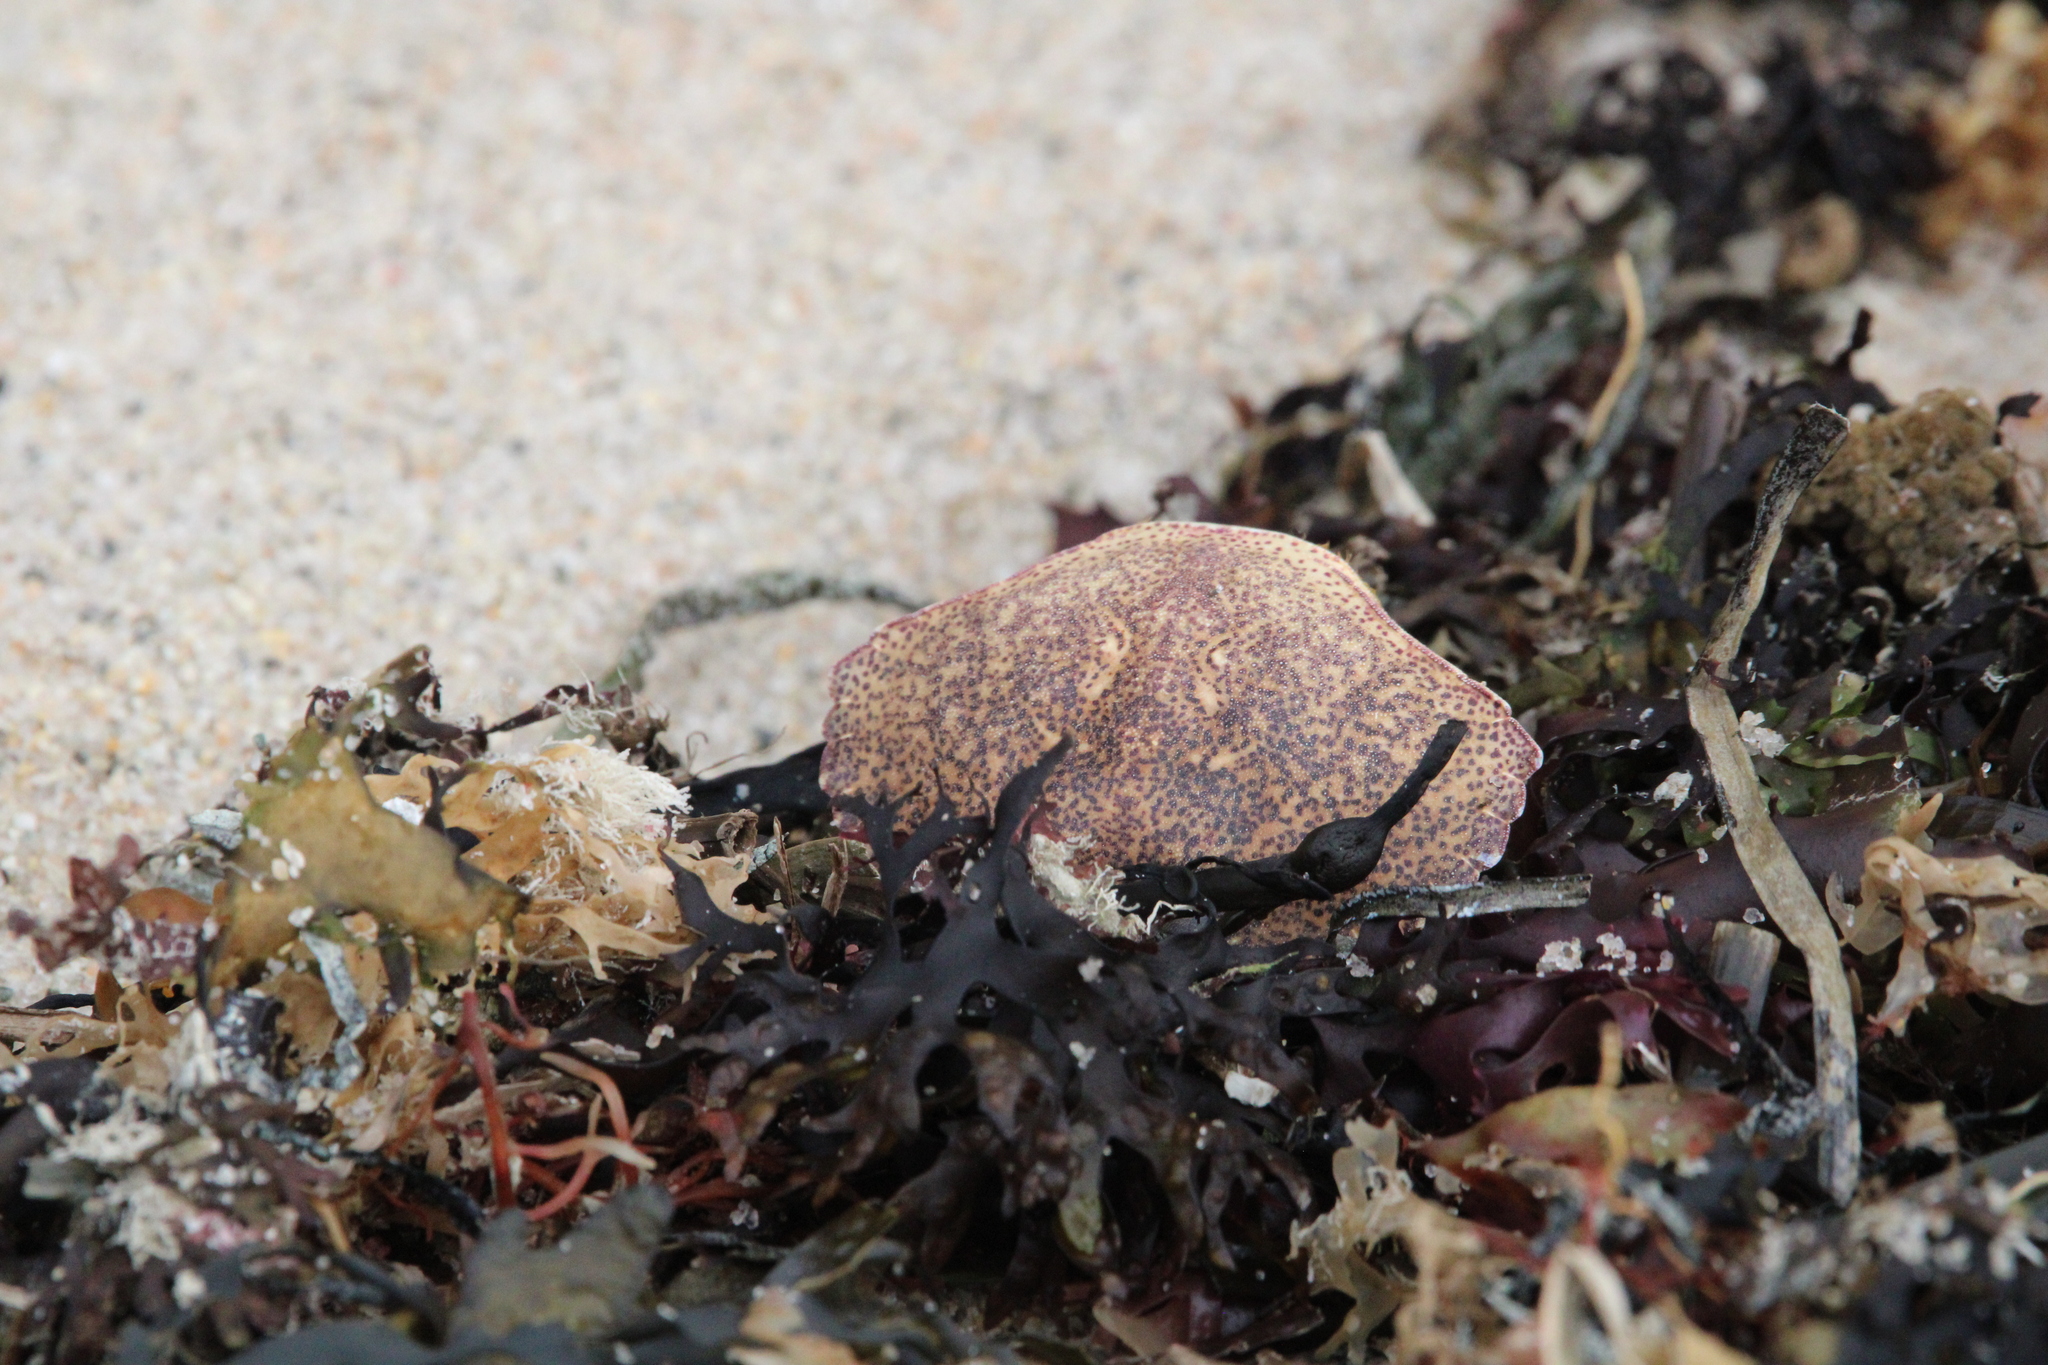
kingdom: Animalia
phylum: Arthropoda
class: Malacostraca
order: Decapoda
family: Cancridae
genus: Cancer
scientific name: Cancer irroratus
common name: Atlantic rock crab
